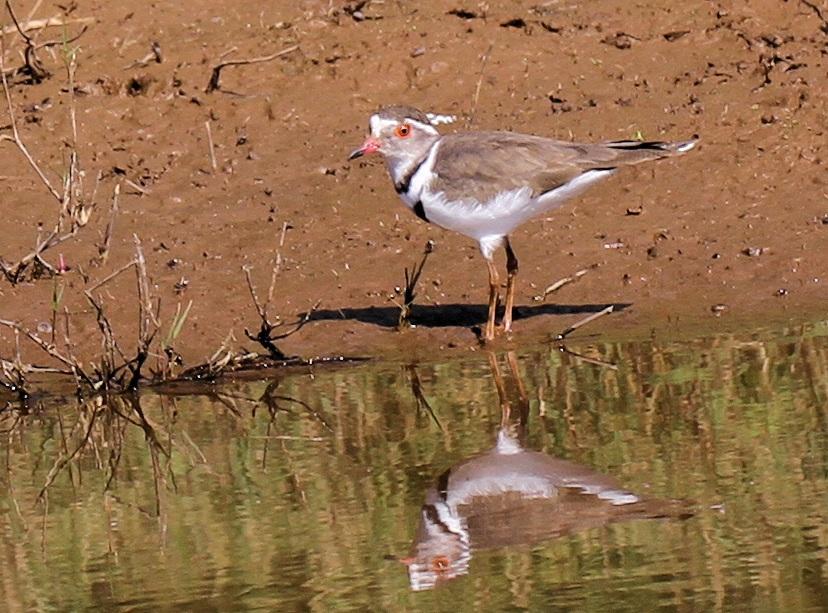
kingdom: Animalia
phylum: Chordata
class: Aves
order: Charadriiformes
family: Charadriidae
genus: Charadrius
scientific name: Charadrius tricollaris
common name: Three-banded plover
